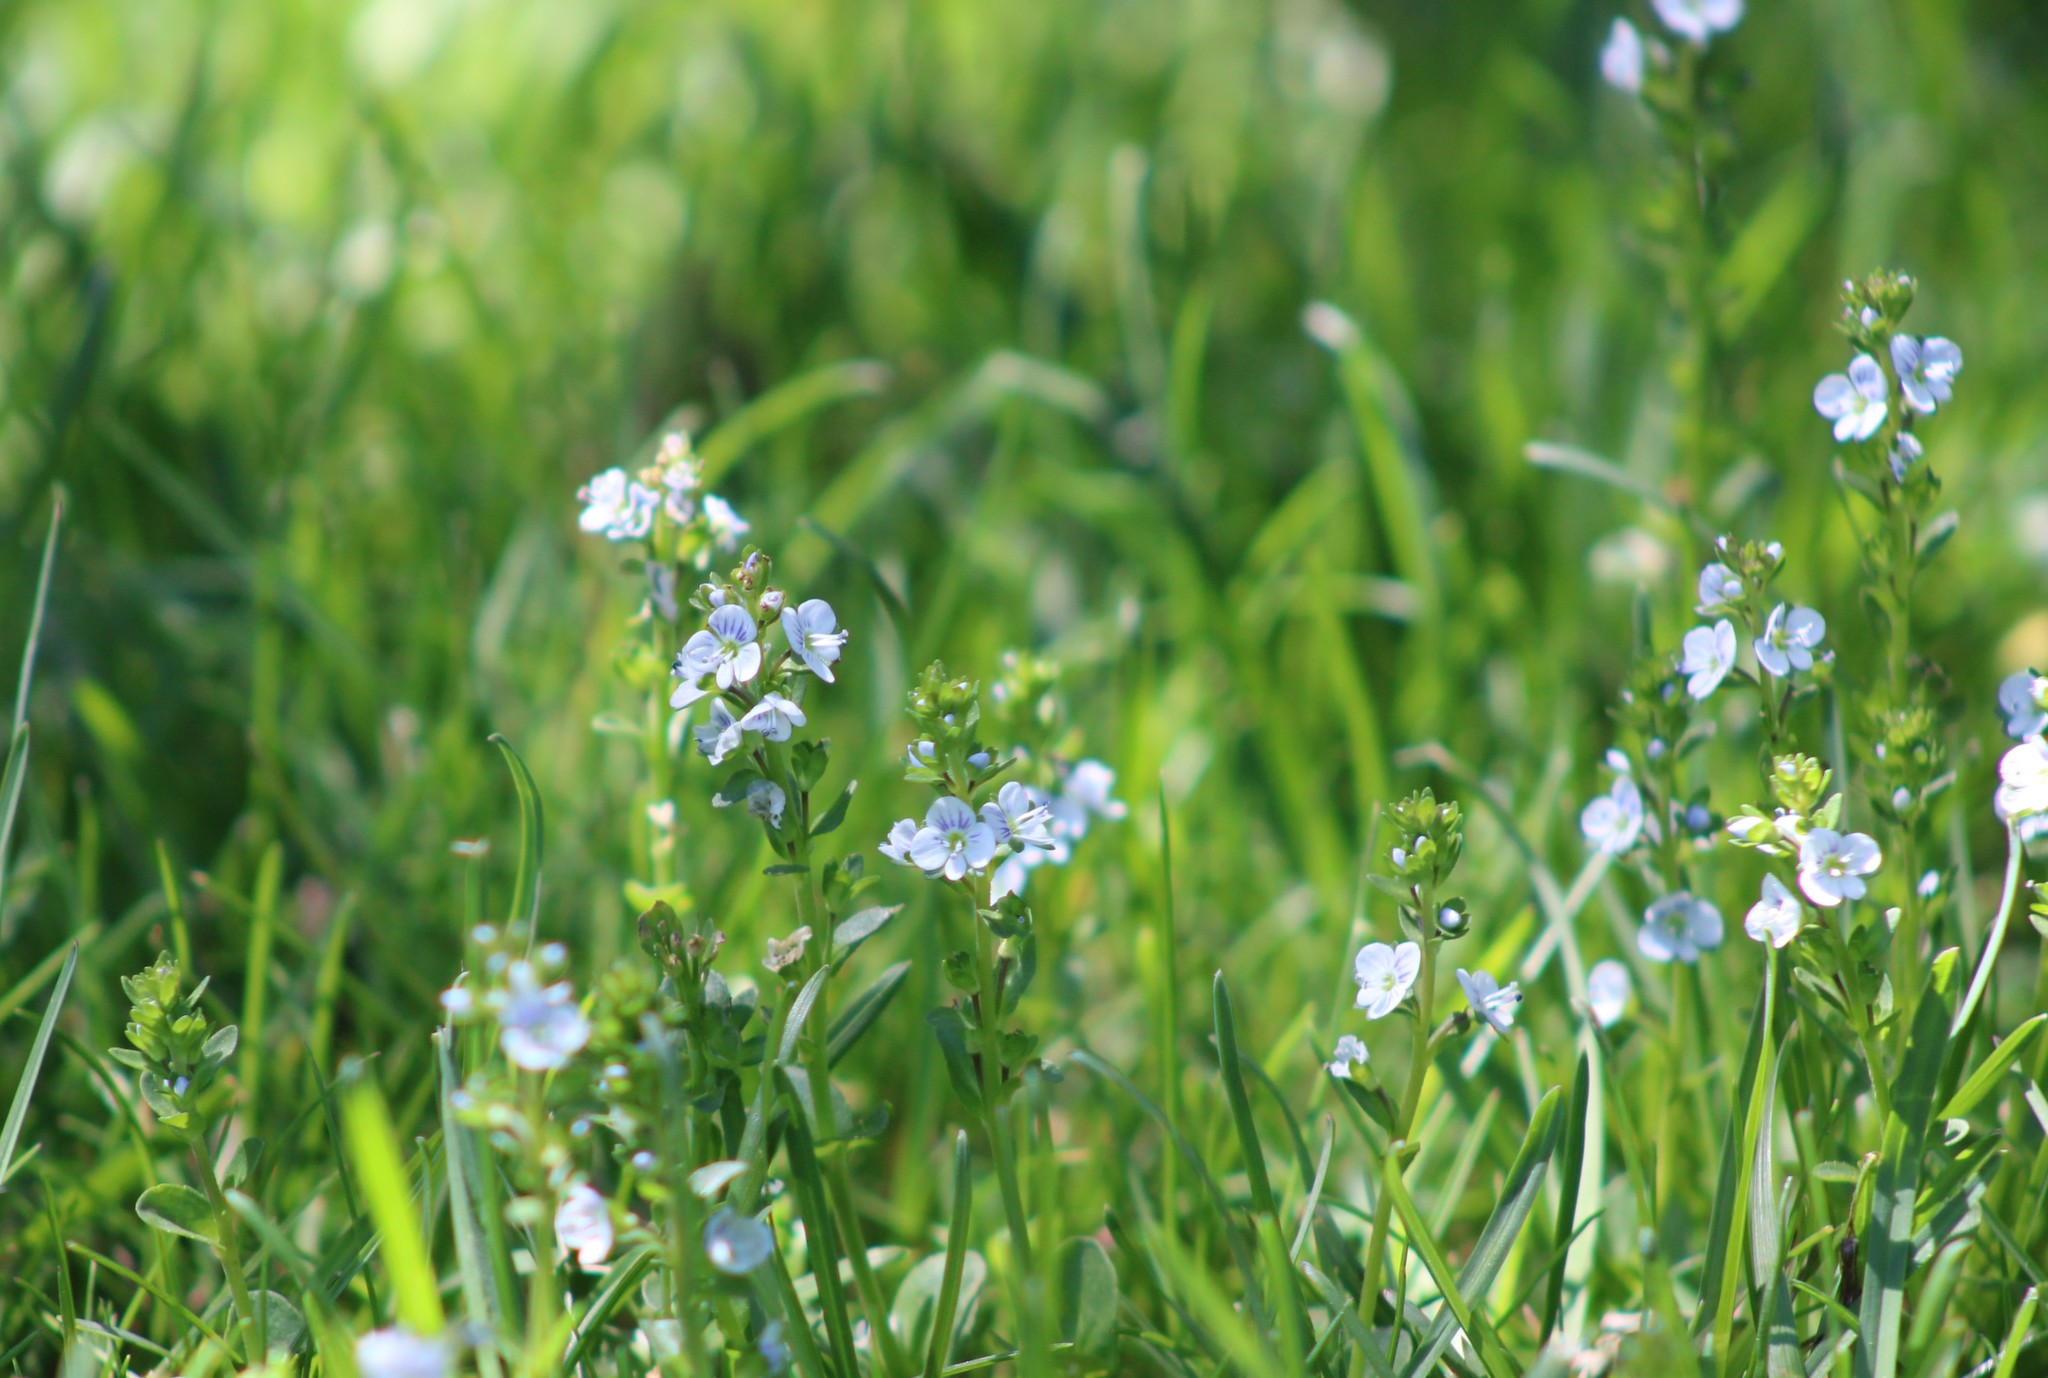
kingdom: Plantae
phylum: Tracheophyta
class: Magnoliopsida
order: Lamiales
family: Plantaginaceae
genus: Veronica
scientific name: Veronica serpyllifolia
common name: Thyme-leaved speedwell
